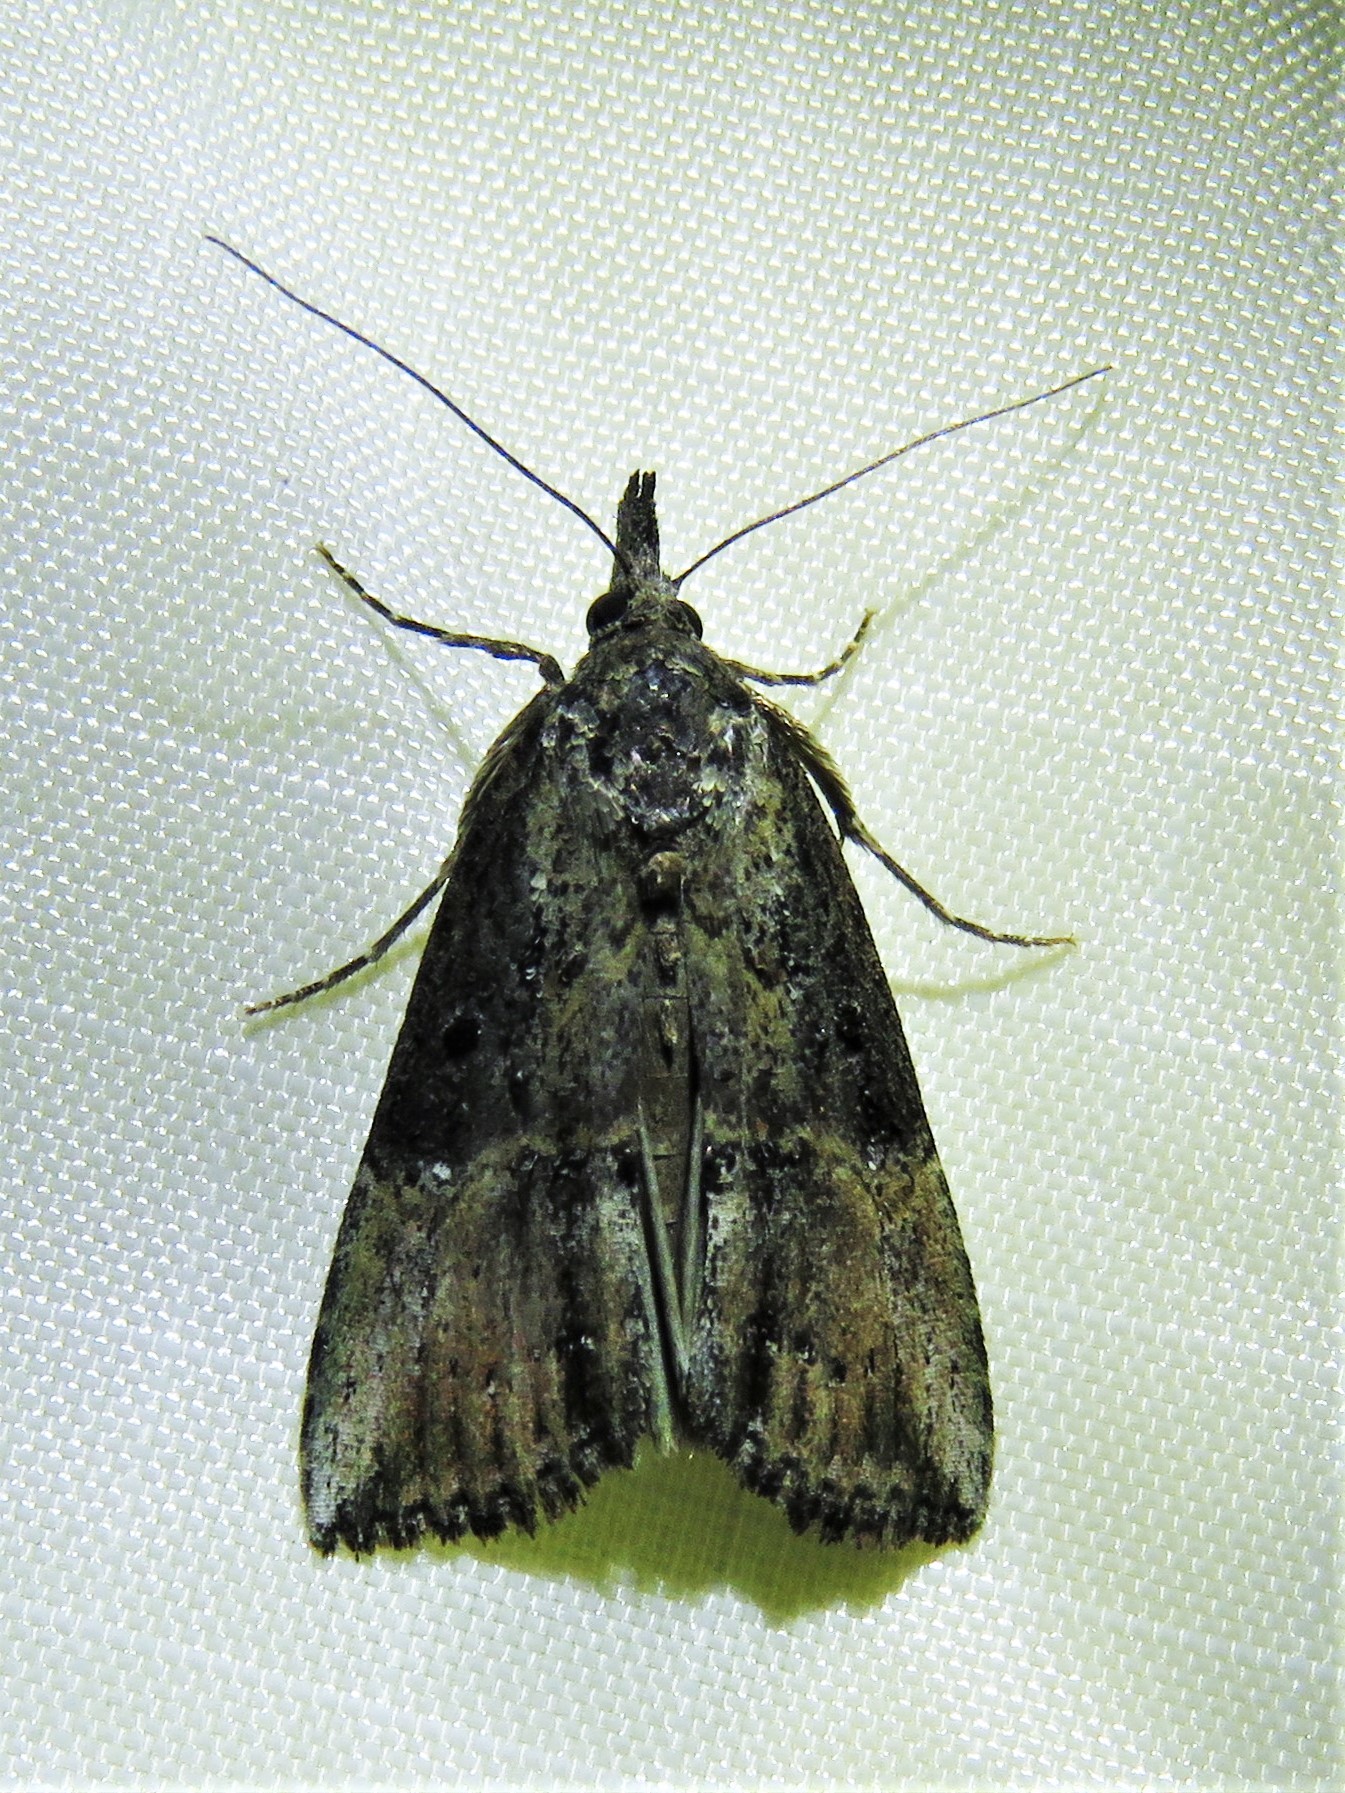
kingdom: Animalia
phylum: Arthropoda
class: Insecta
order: Lepidoptera
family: Erebidae
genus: Hypena
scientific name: Hypena scabra
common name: Green cloverworm
